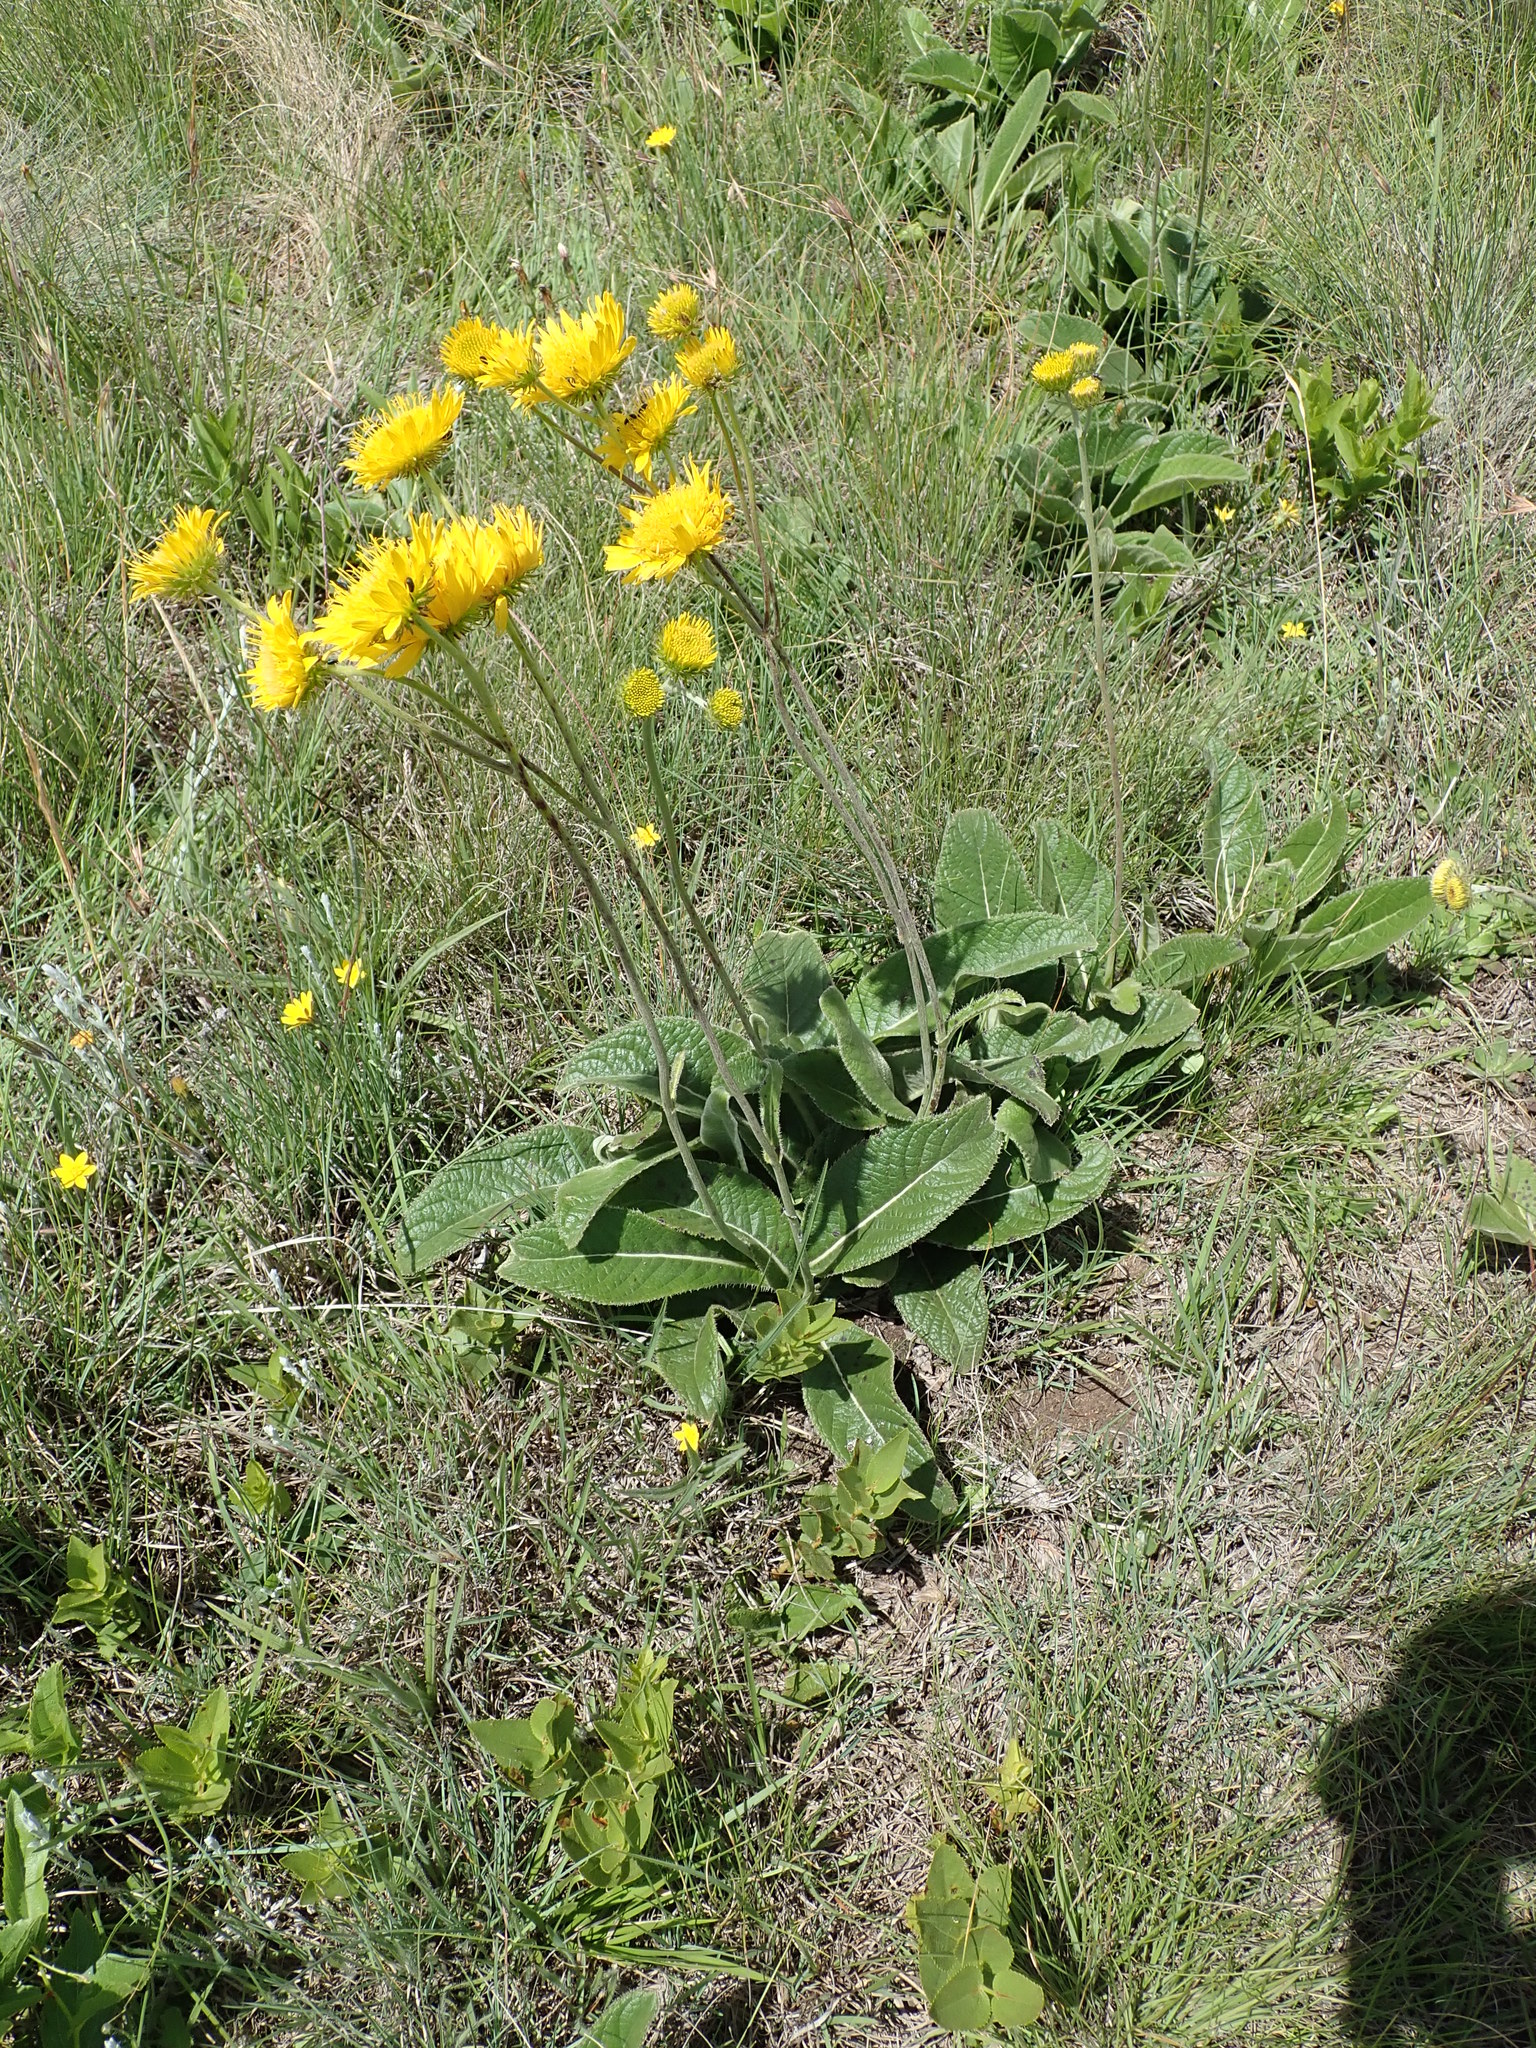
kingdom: Plantae
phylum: Tracheophyta
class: Magnoliopsida
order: Asterales
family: Asteraceae
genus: Berkheya
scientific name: Berkheya setifera
